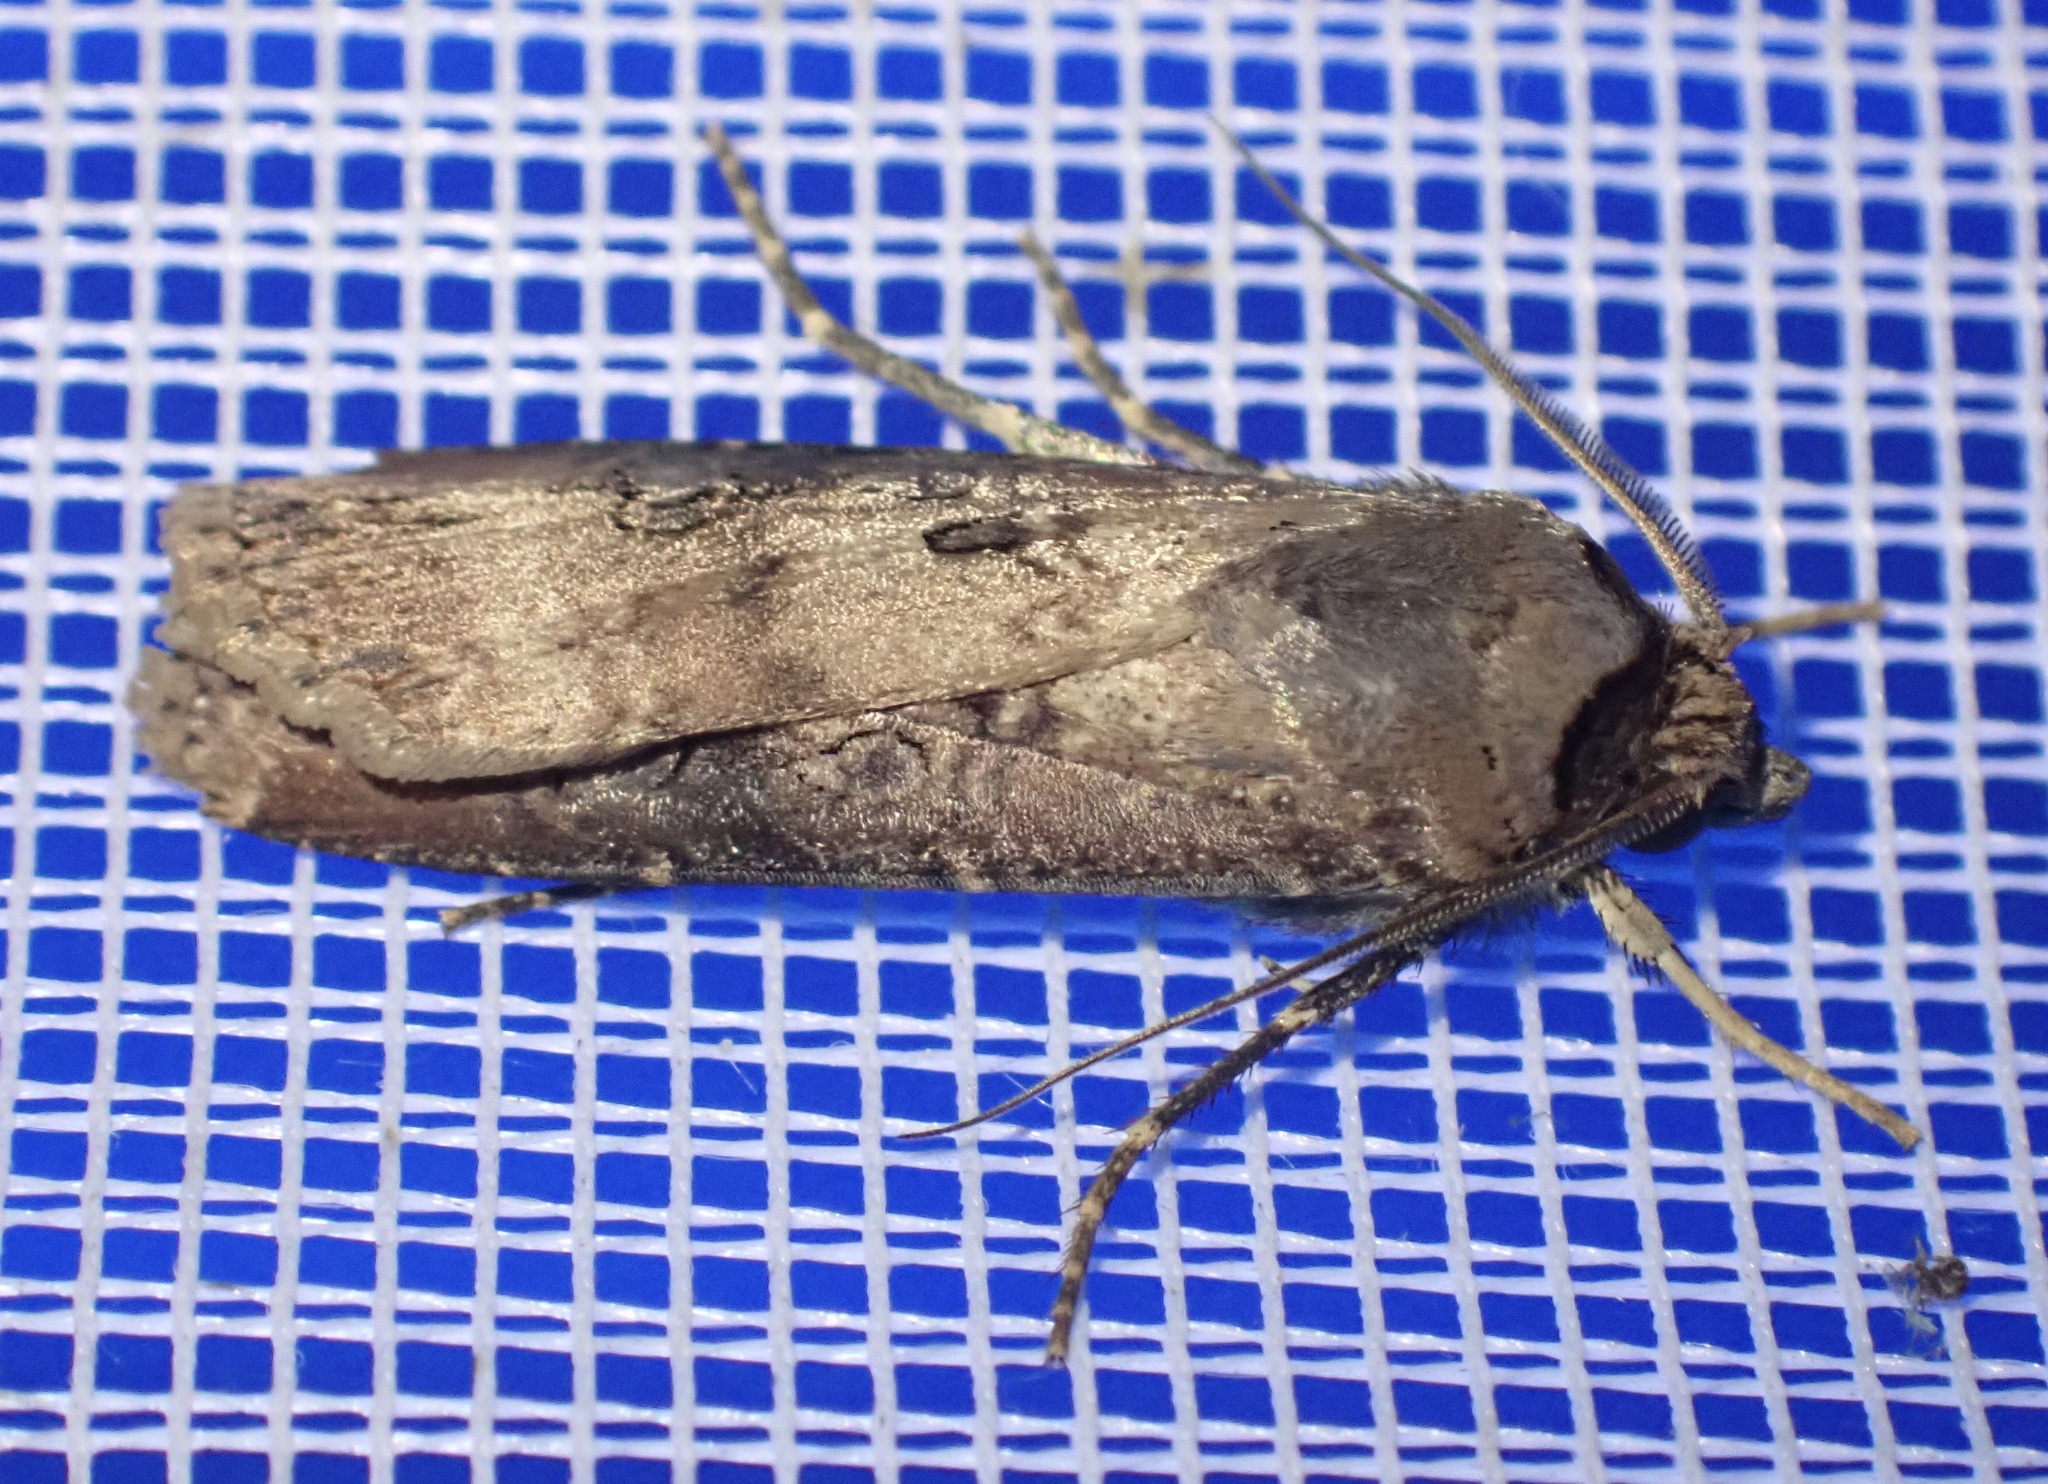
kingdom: Animalia
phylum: Arthropoda
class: Insecta
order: Lepidoptera
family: Noctuidae
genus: Agrotis
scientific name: Agrotis ipsilon
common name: Dark sword-grass
